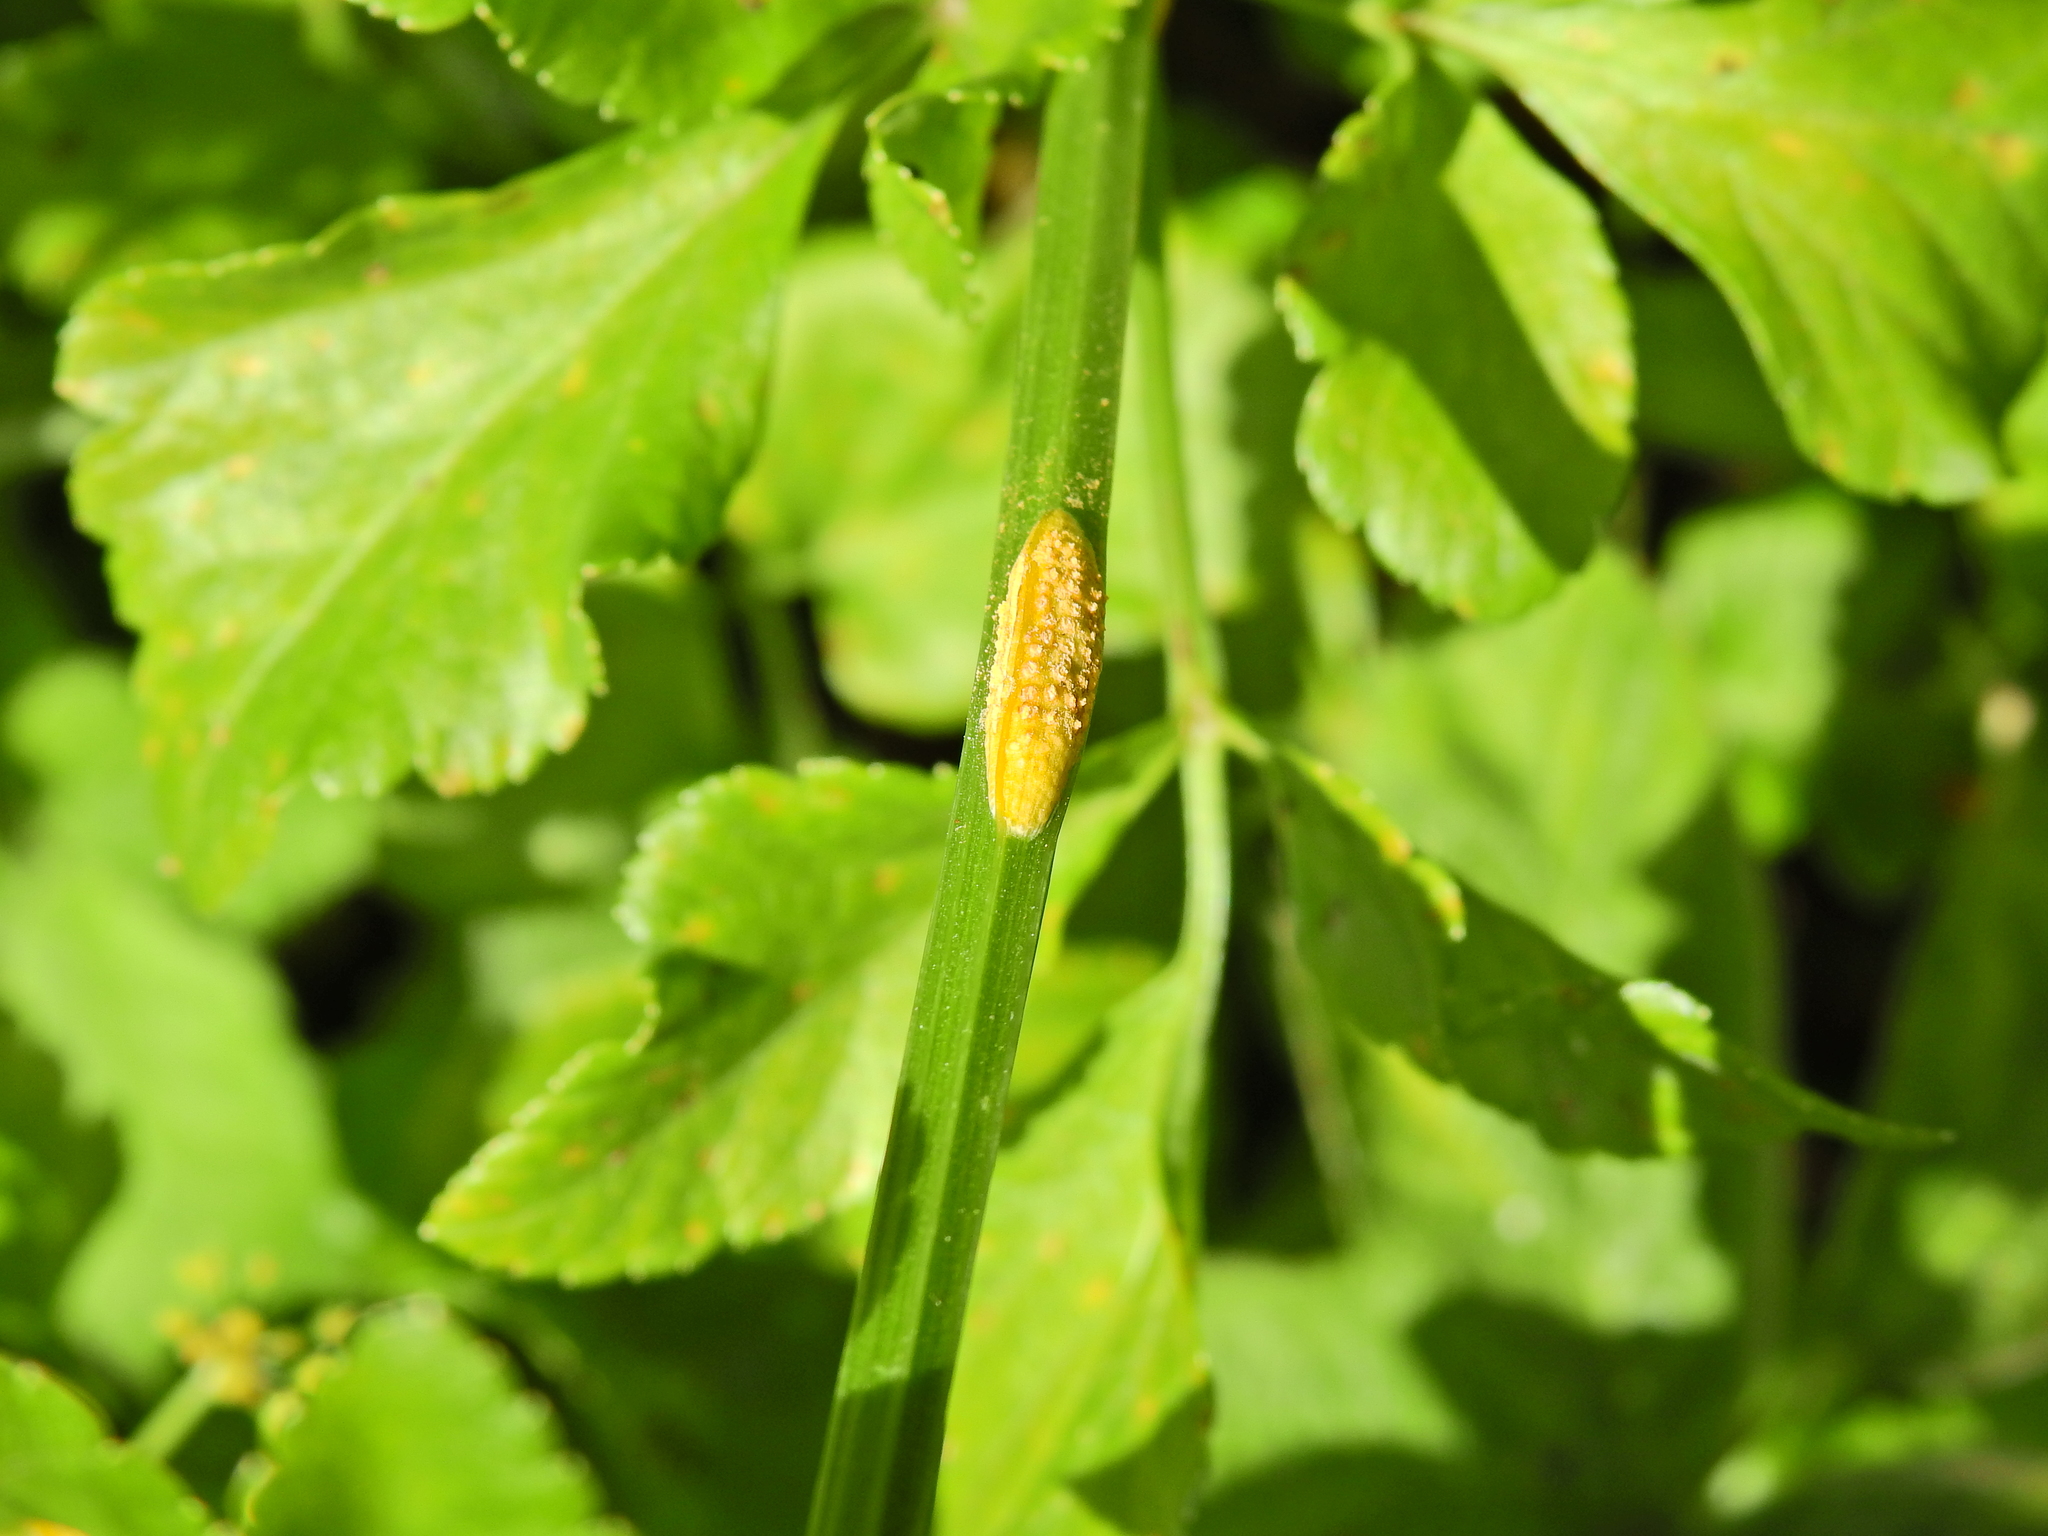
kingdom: Fungi
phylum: Basidiomycota
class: Pucciniomycetes
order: Pucciniales
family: Pucciniaceae
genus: Puccinia
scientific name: Puccinia smyrnii
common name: Alexanders rust
